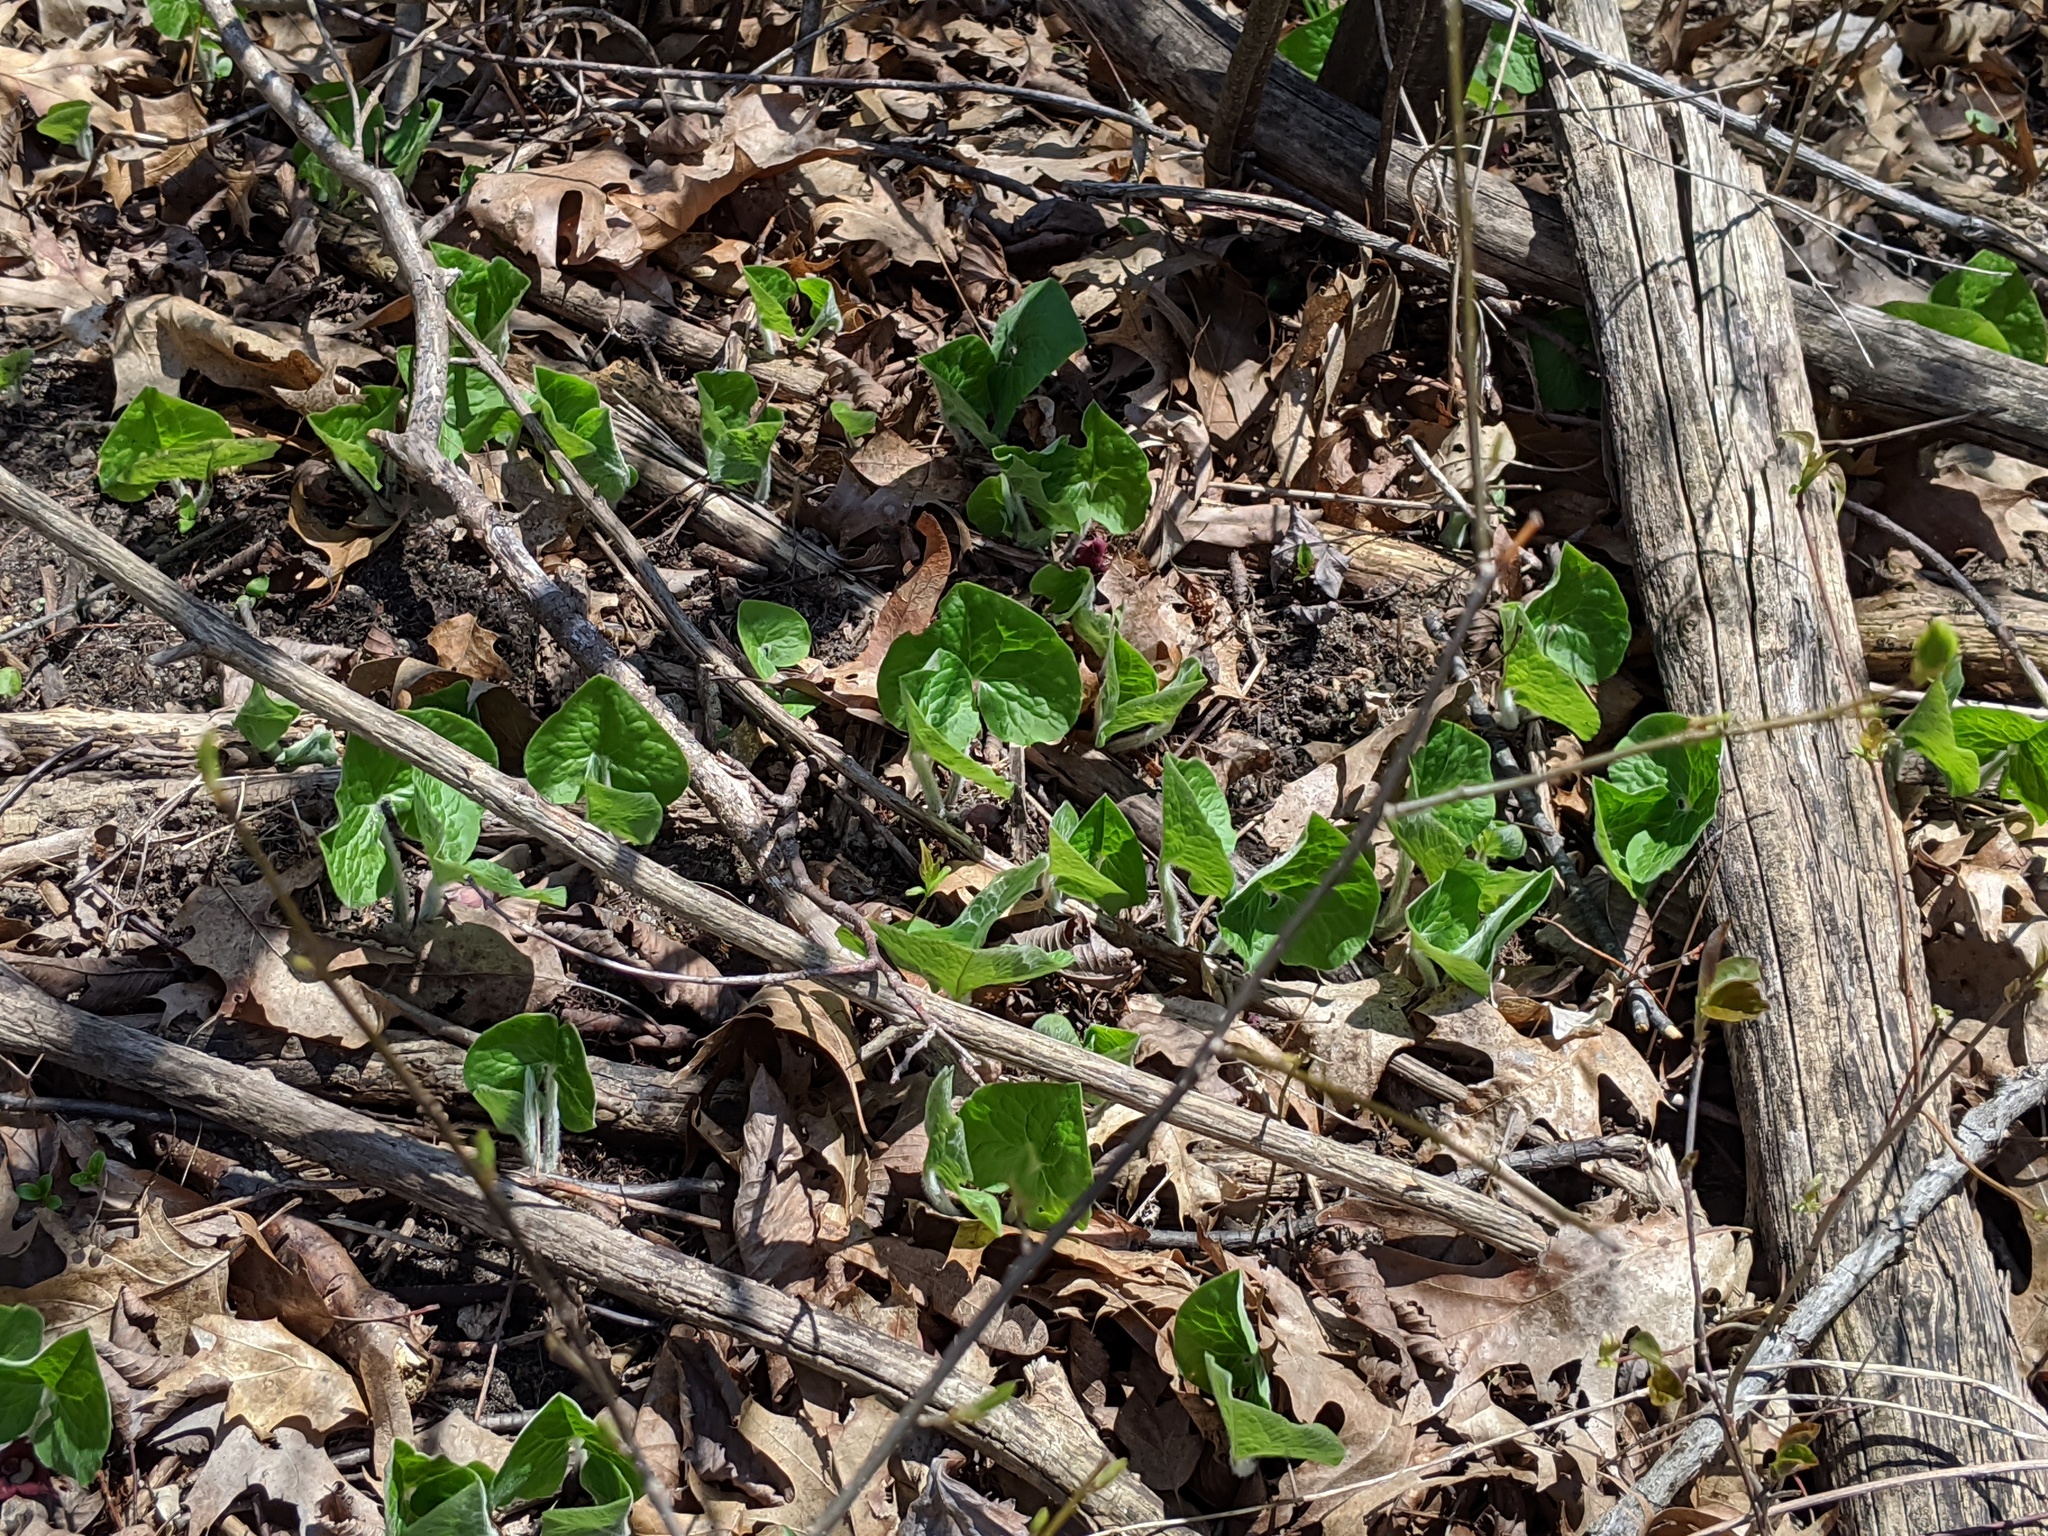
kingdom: Plantae
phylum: Tracheophyta
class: Magnoliopsida
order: Piperales
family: Aristolochiaceae
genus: Asarum
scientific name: Asarum canadense
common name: Wild ginger
